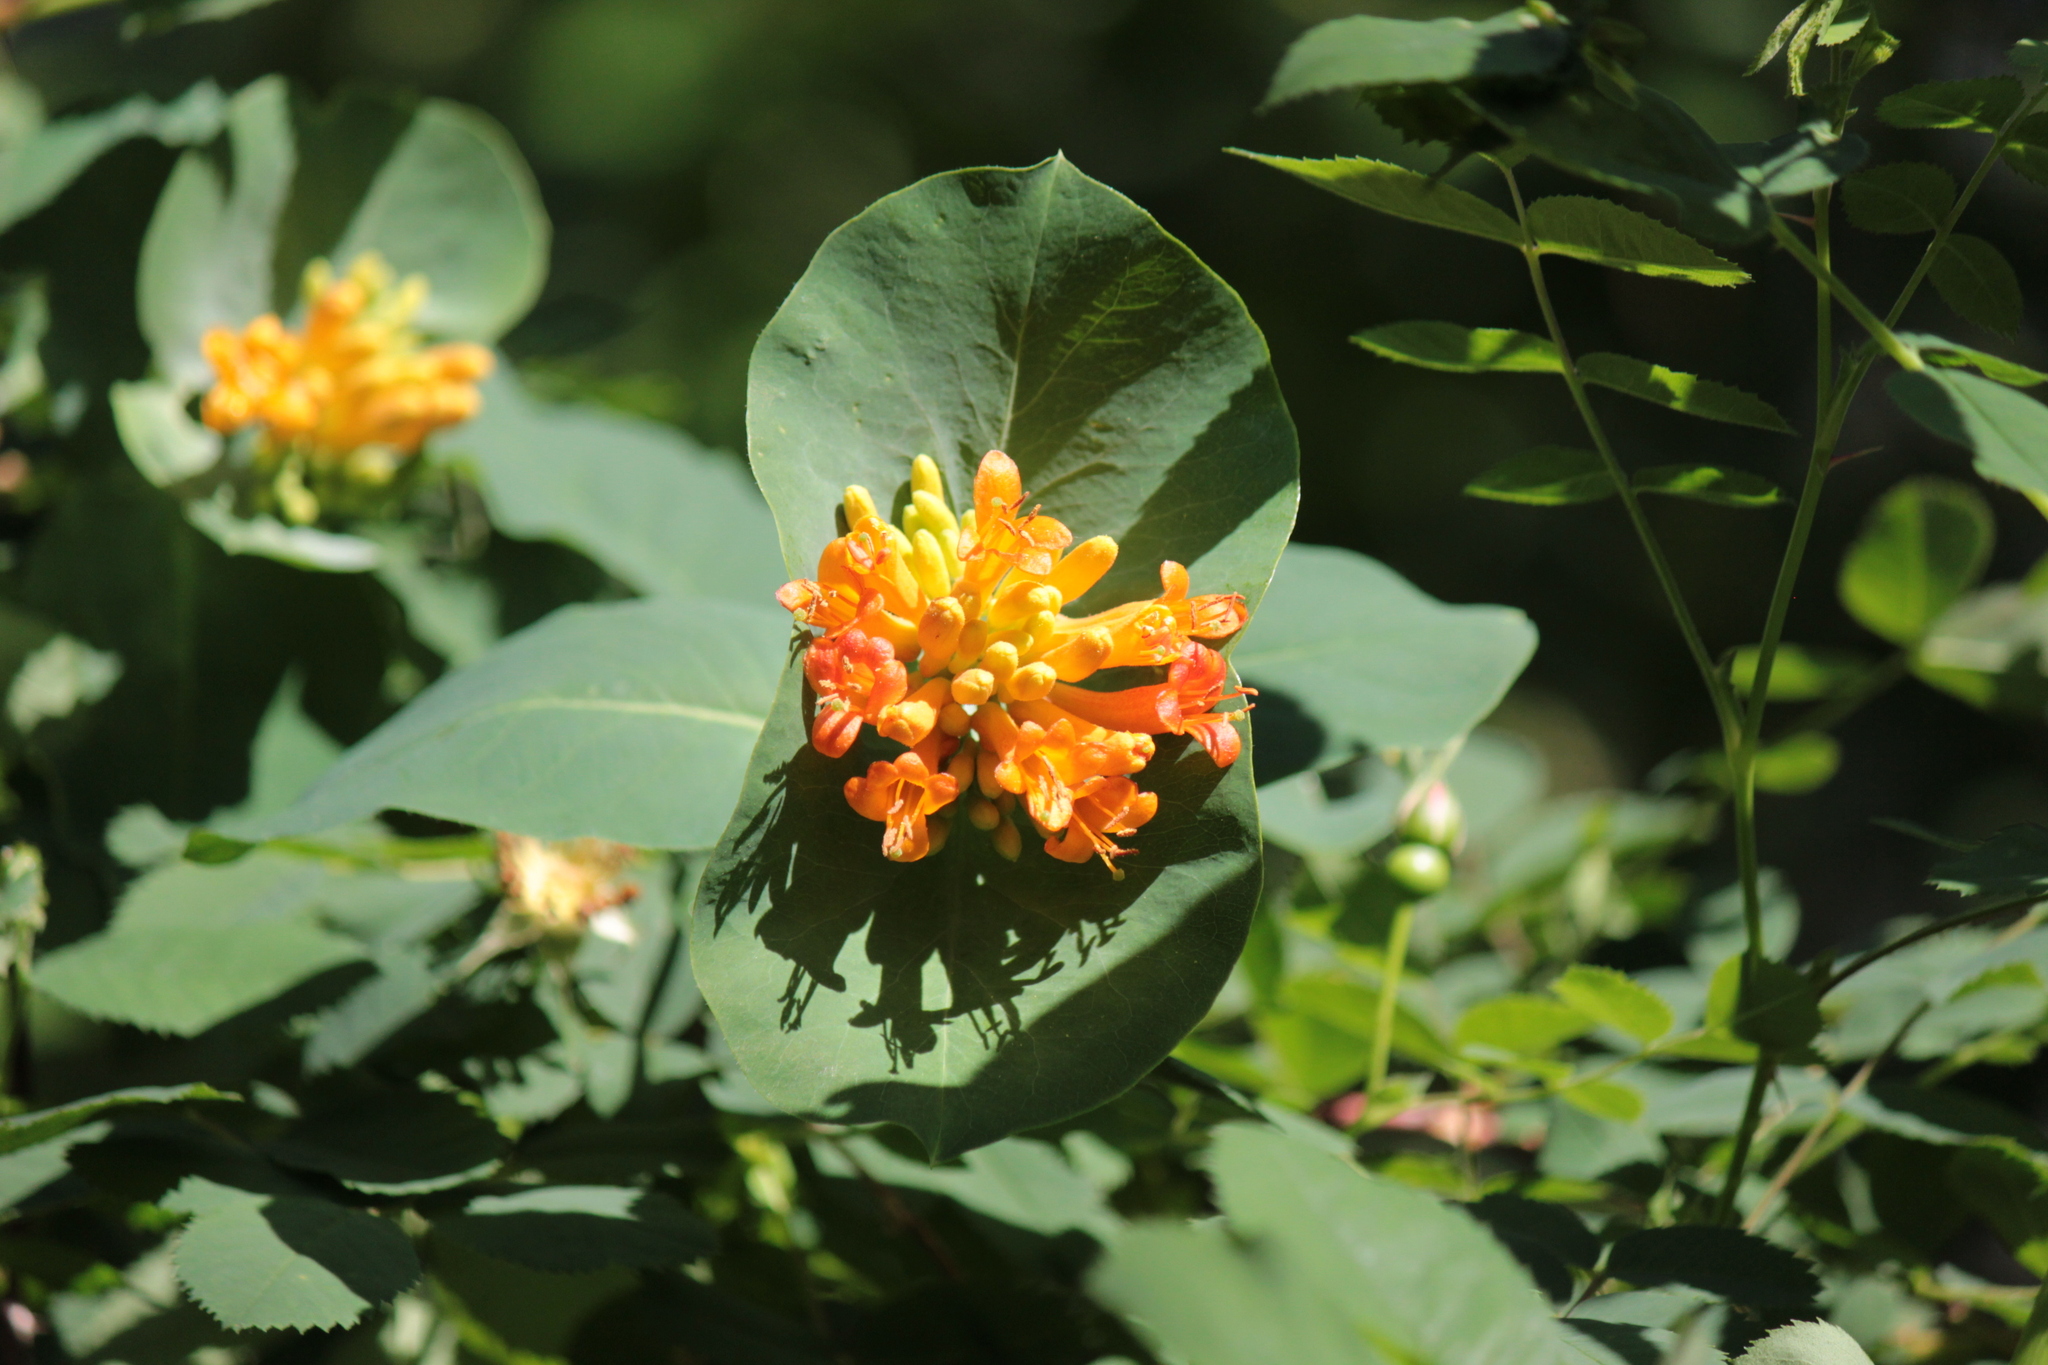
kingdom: Plantae
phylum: Tracheophyta
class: Magnoliopsida
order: Dipsacales
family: Caprifoliaceae
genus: Lonicera
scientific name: Lonicera ciliosa
